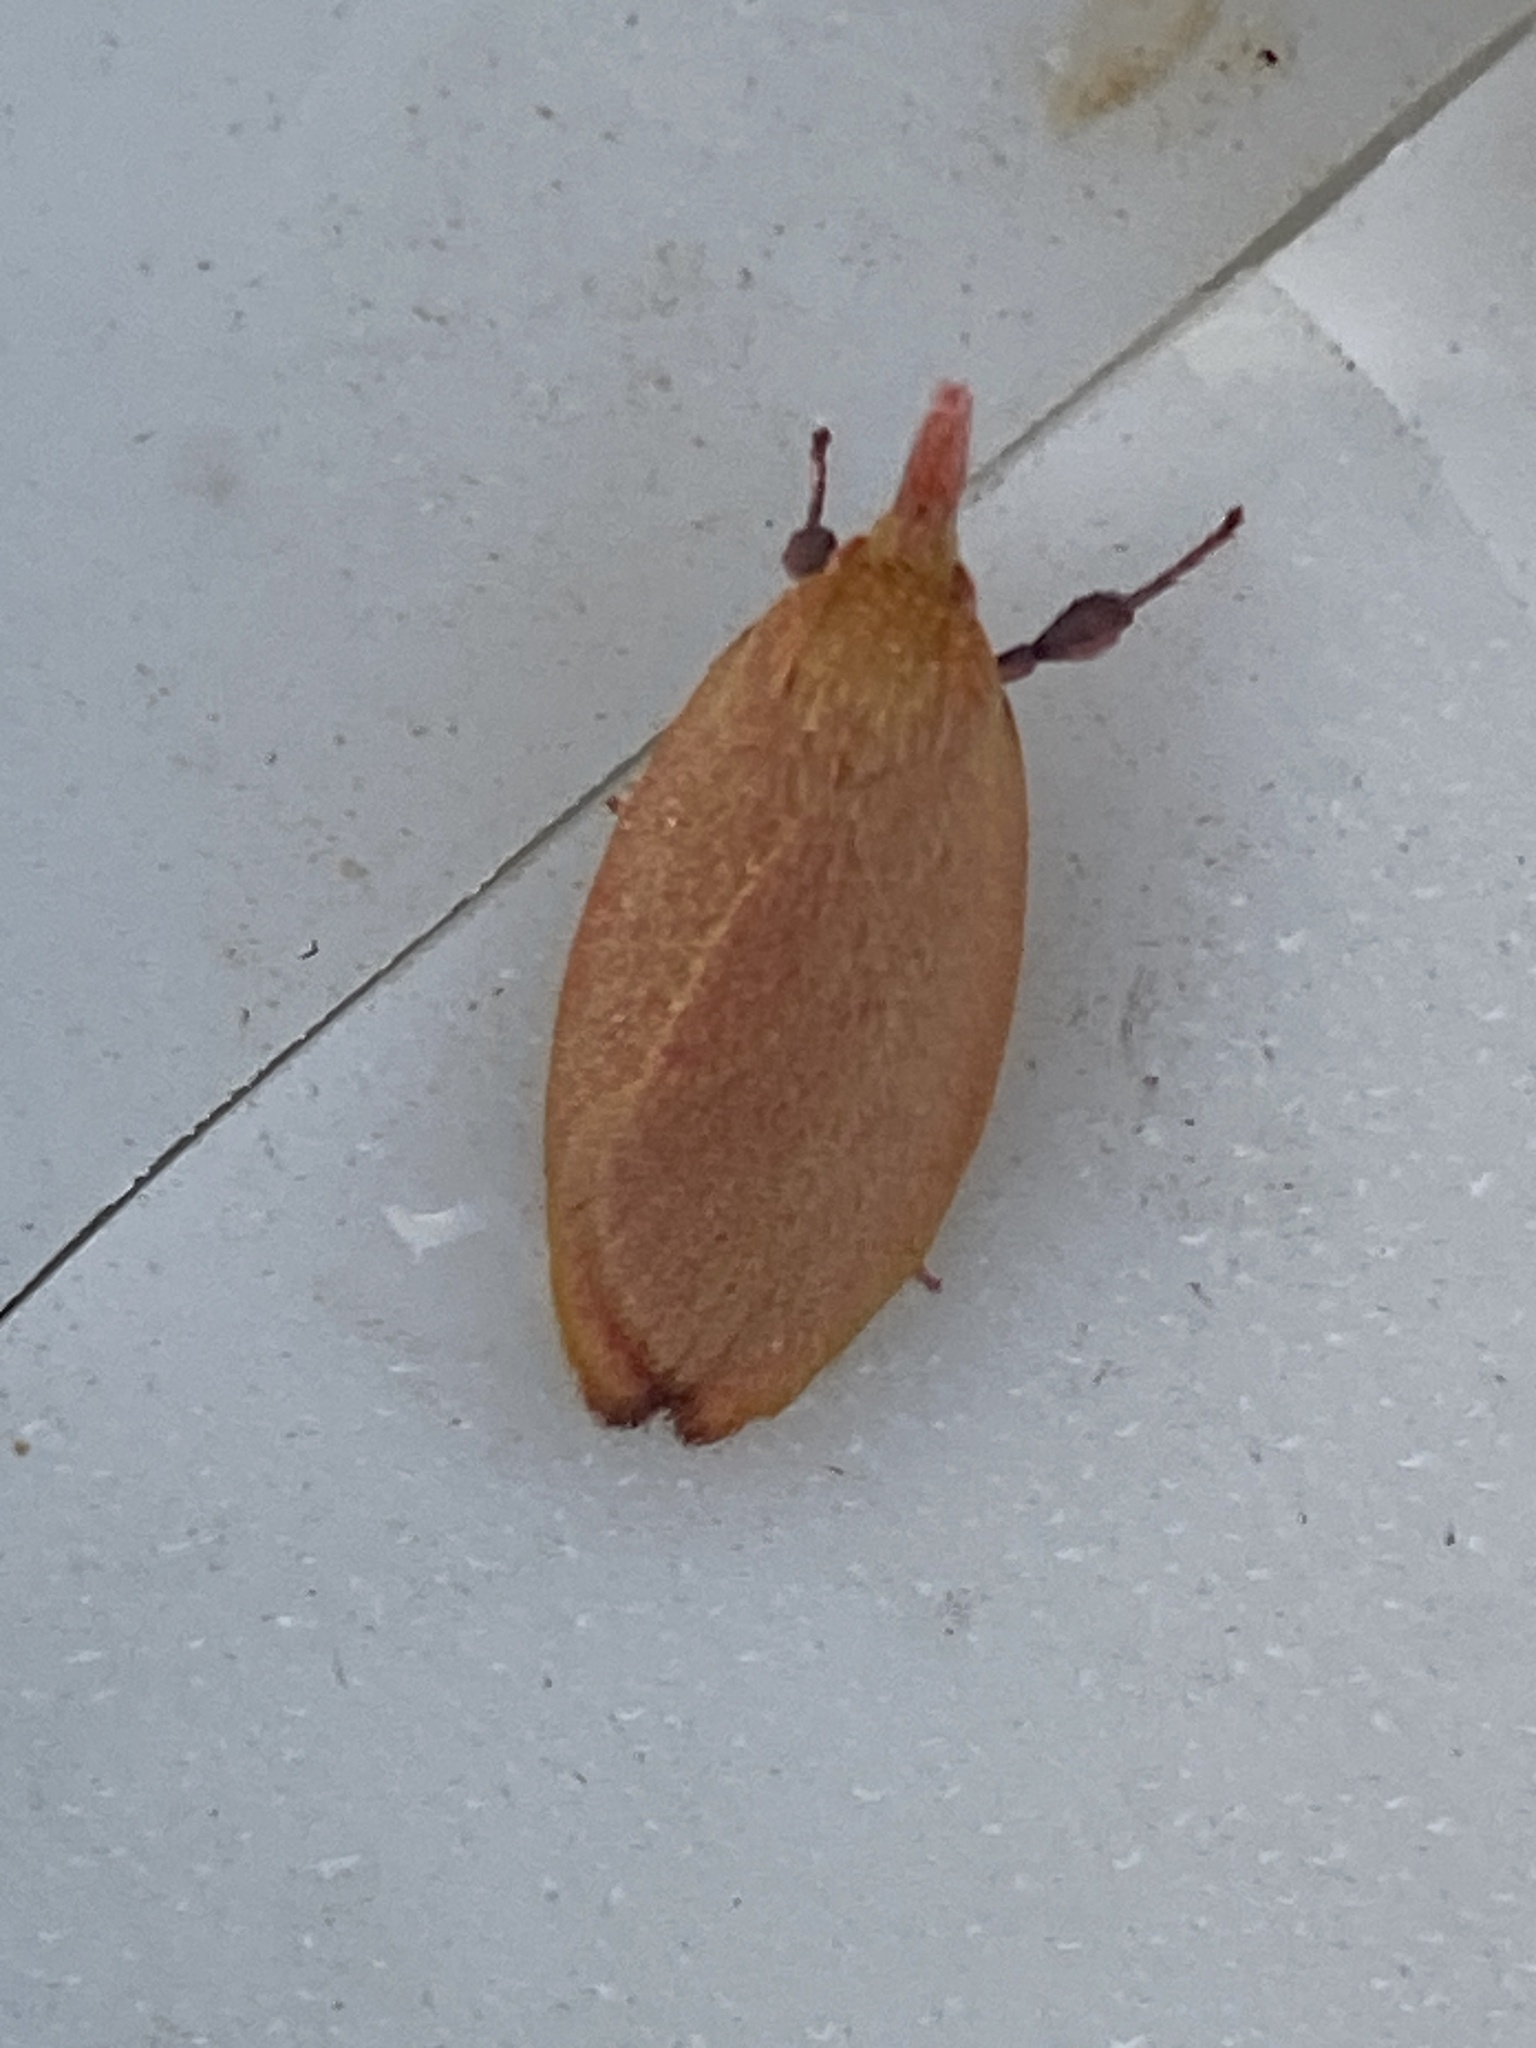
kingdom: Animalia
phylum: Arthropoda
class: Insecta
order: Lepidoptera
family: Oecophoridae
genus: Wingia
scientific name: Wingia rectiorella
